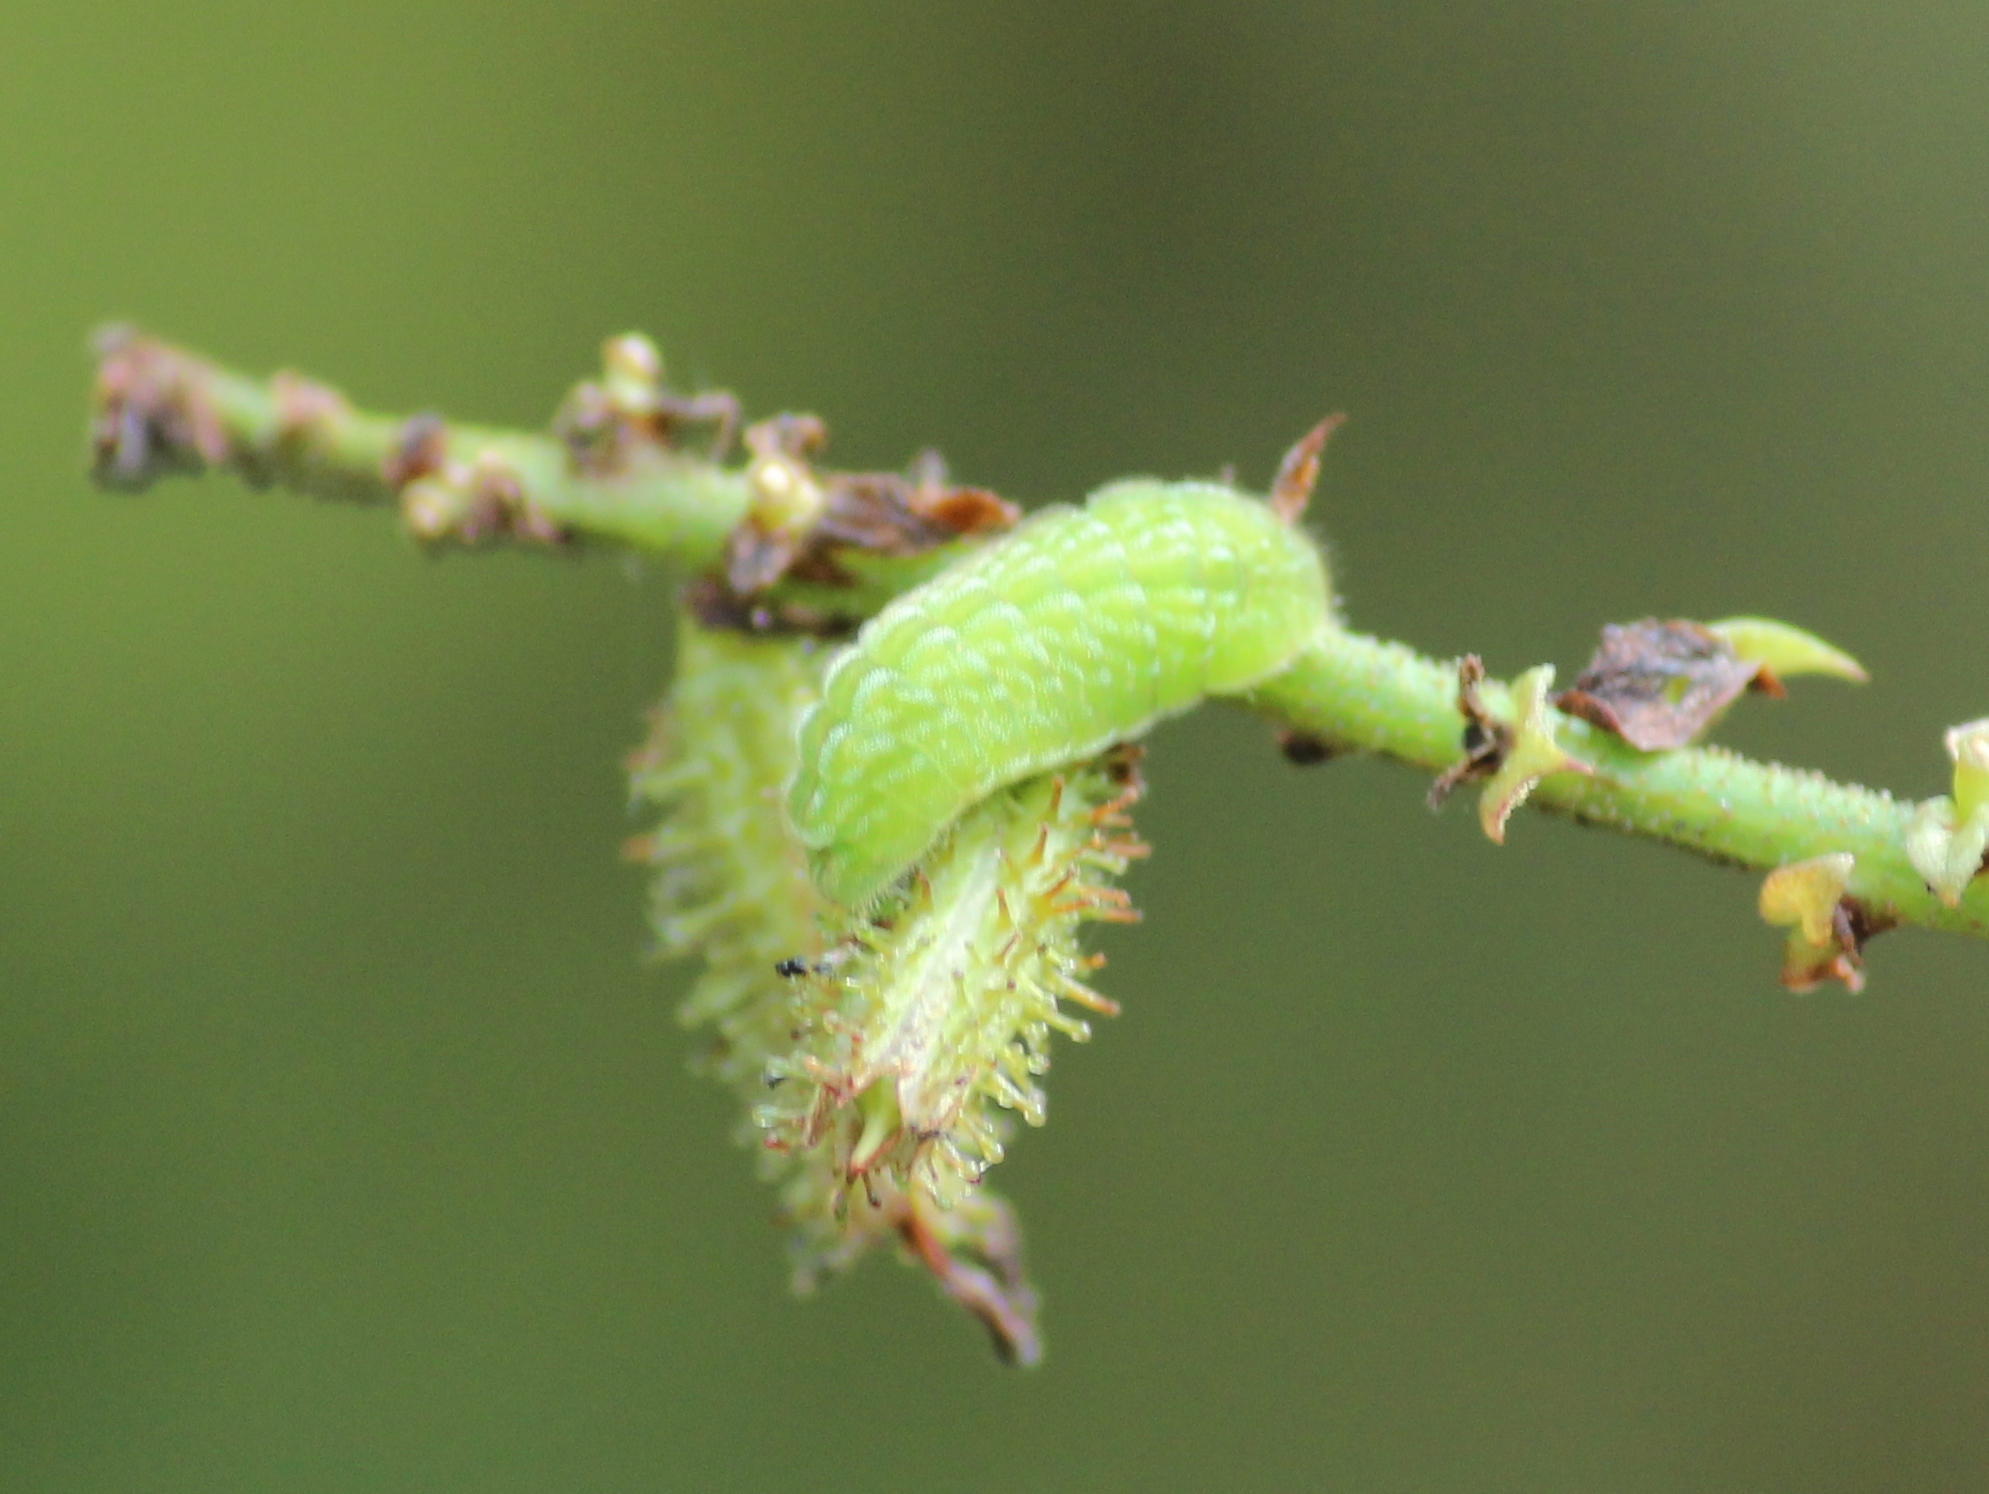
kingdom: Animalia
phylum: Arthropoda
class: Insecta
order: Lepidoptera
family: Lycaenidae
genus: Leptotes
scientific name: Leptotes plinius
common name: Zebra blue
